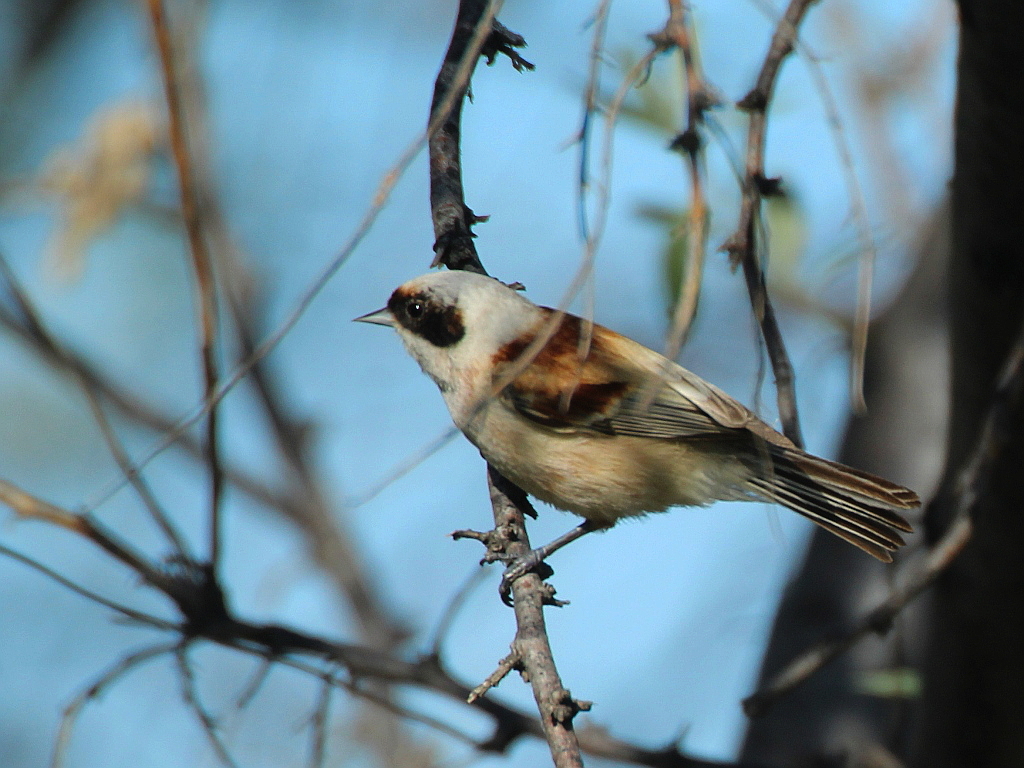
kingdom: Animalia
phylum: Chordata
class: Aves
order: Passeriformes
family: Remizidae
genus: Remiz
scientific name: Remiz pendulinus
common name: Eurasian penduline tit
